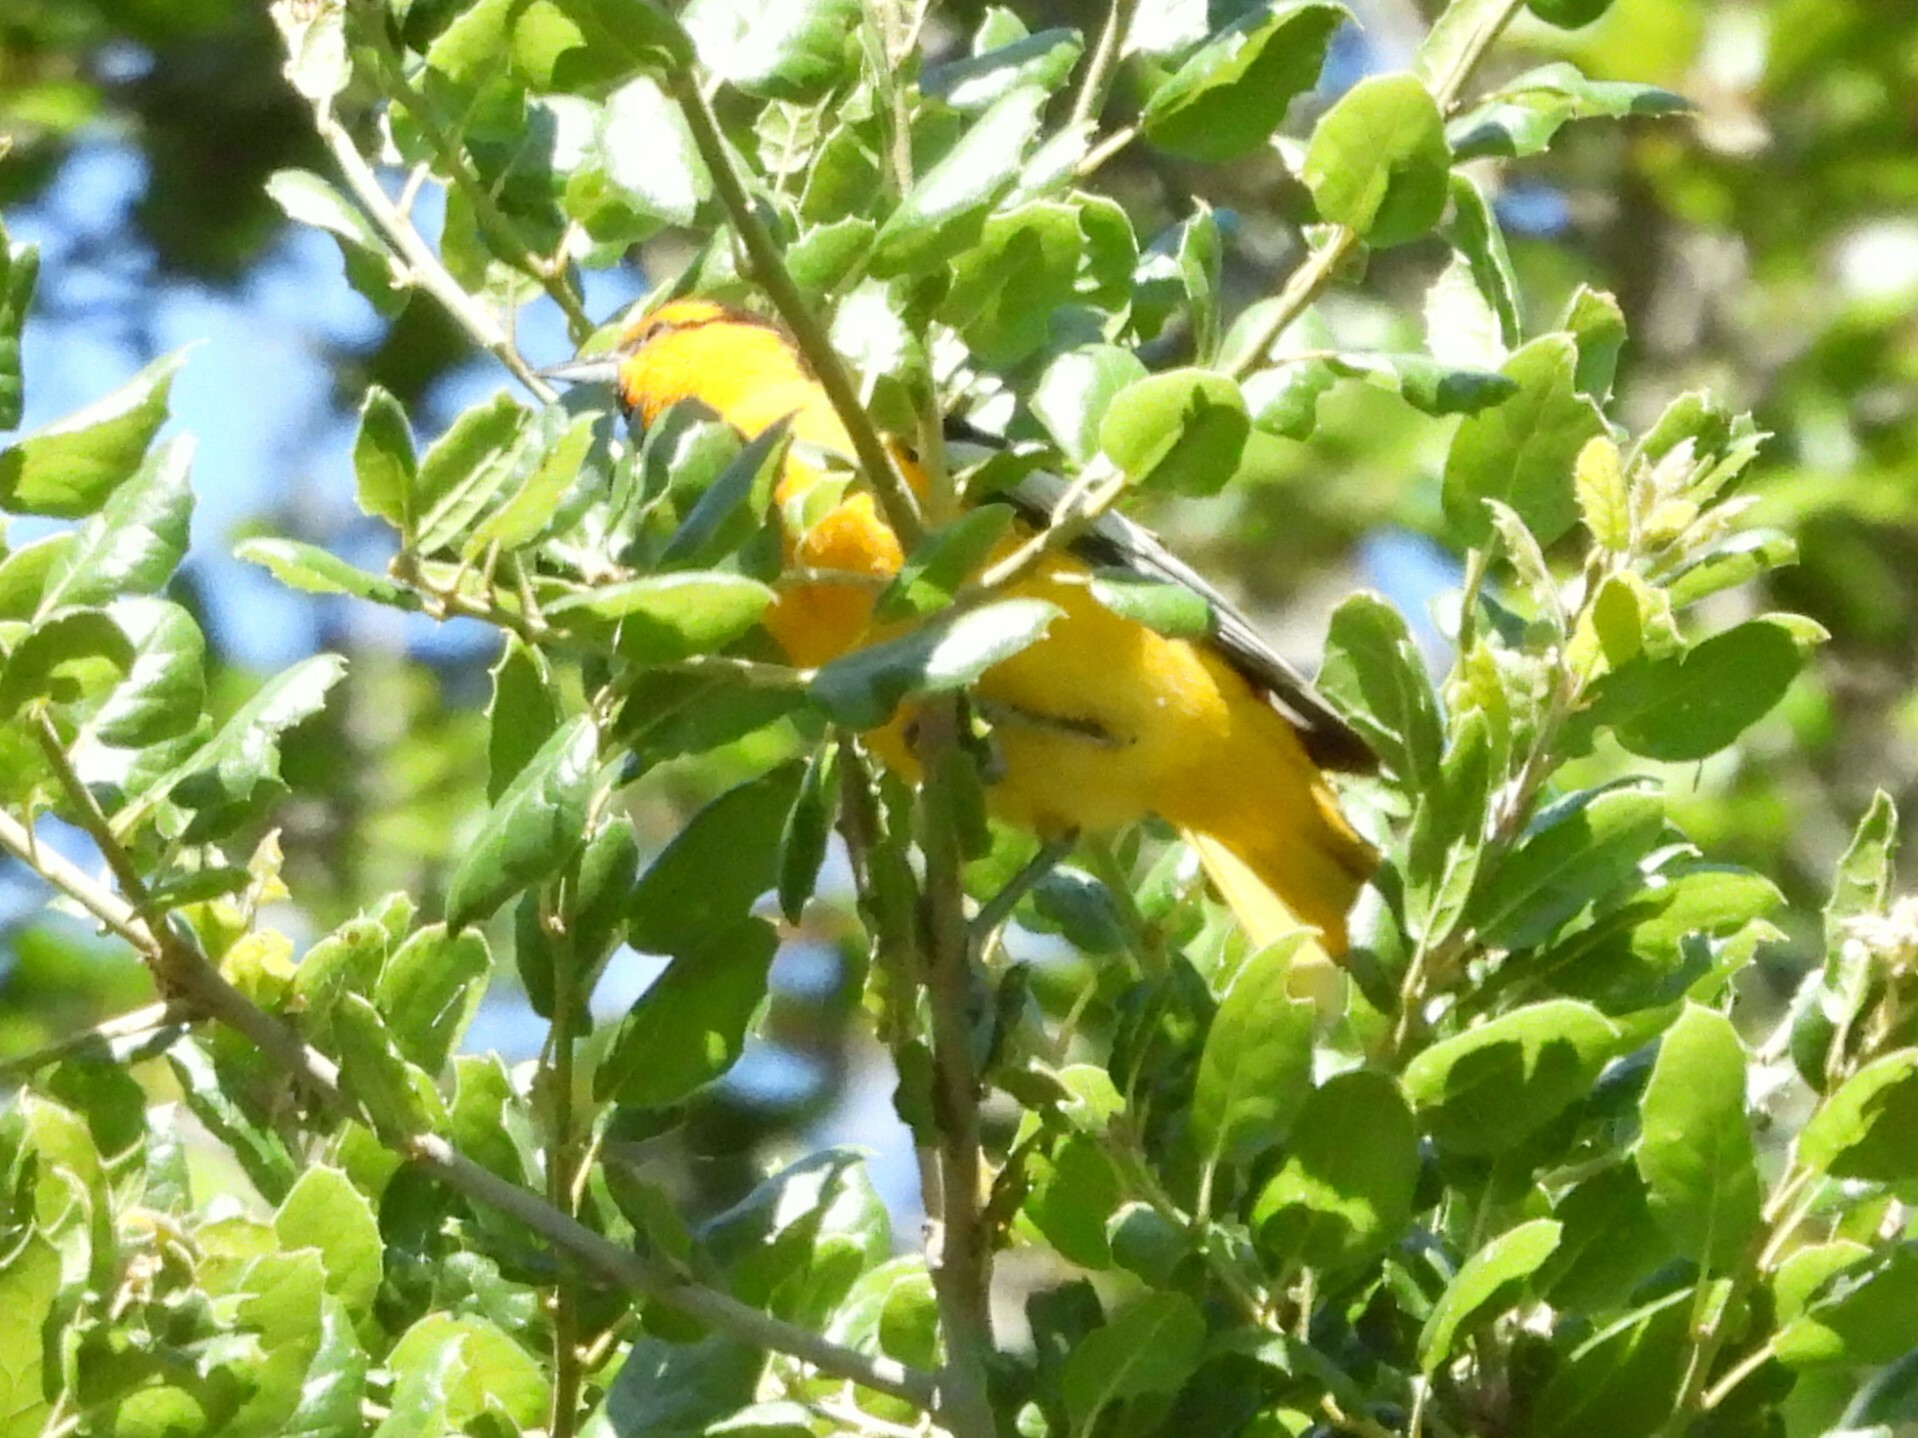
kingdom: Animalia
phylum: Chordata
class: Aves
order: Passeriformes
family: Icteridae
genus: Icterus
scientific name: Icterus bullockii
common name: Bullock's oriole
